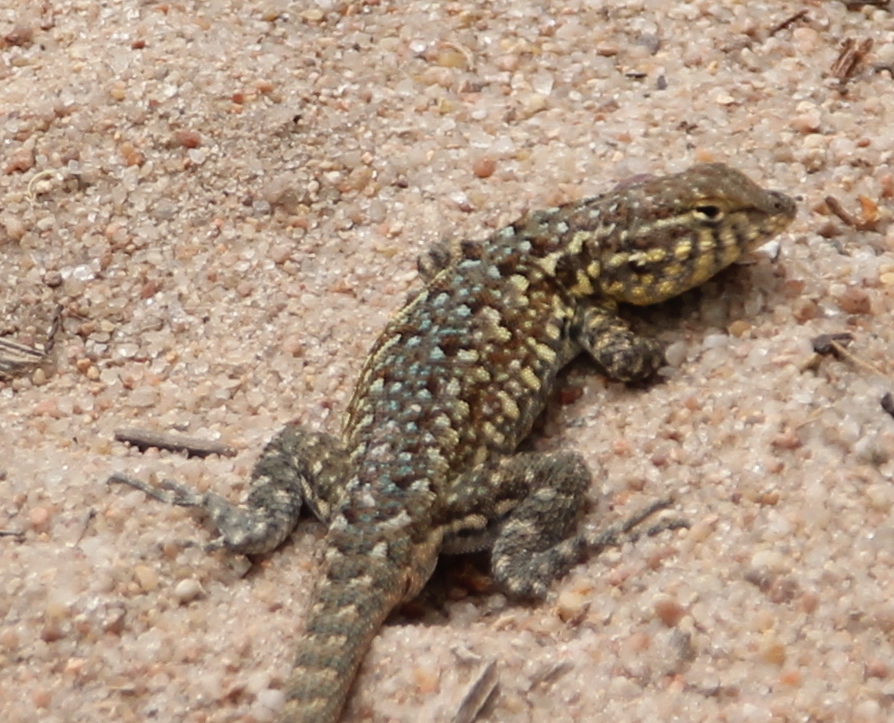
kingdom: Animalia
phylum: Chordata
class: Squamata
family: Phrynosomatidae
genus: Uta
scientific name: Uta stansburiana
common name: Side-blotched lizard
